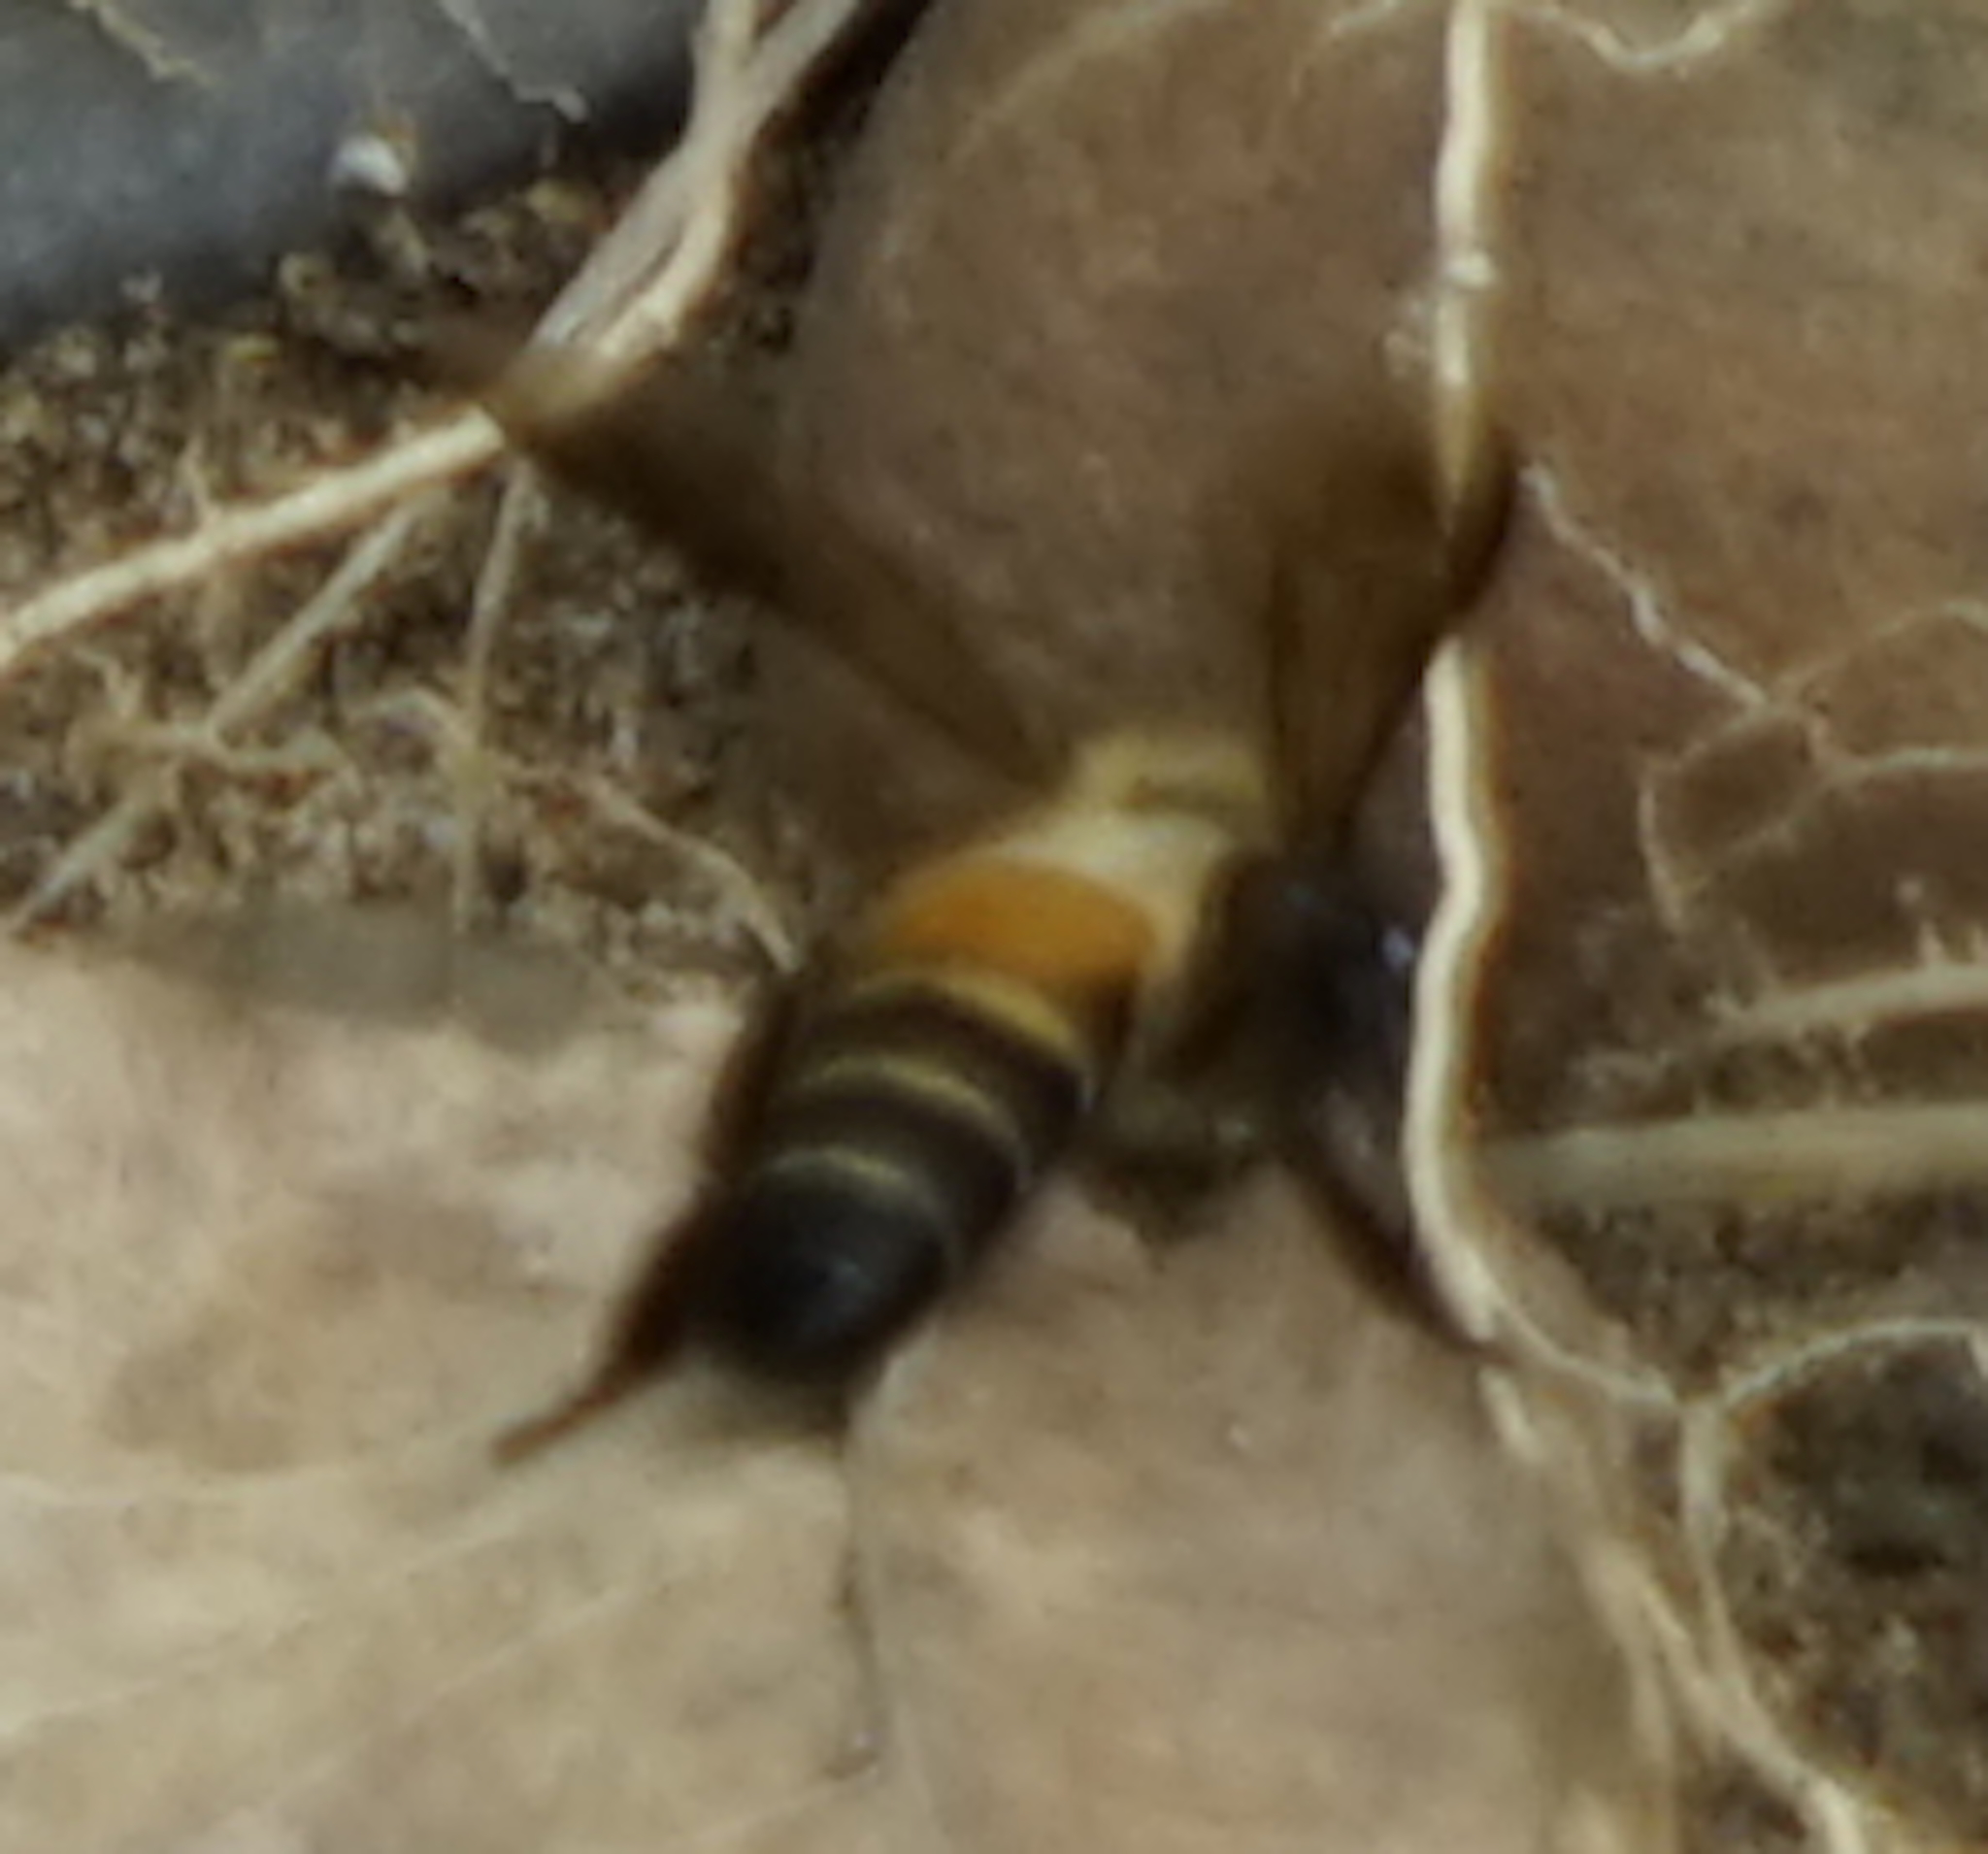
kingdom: Animalia
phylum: Arthropoda
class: Insecta
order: Hymenoptera
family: Apidae
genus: Apis
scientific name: Apis dorsata
